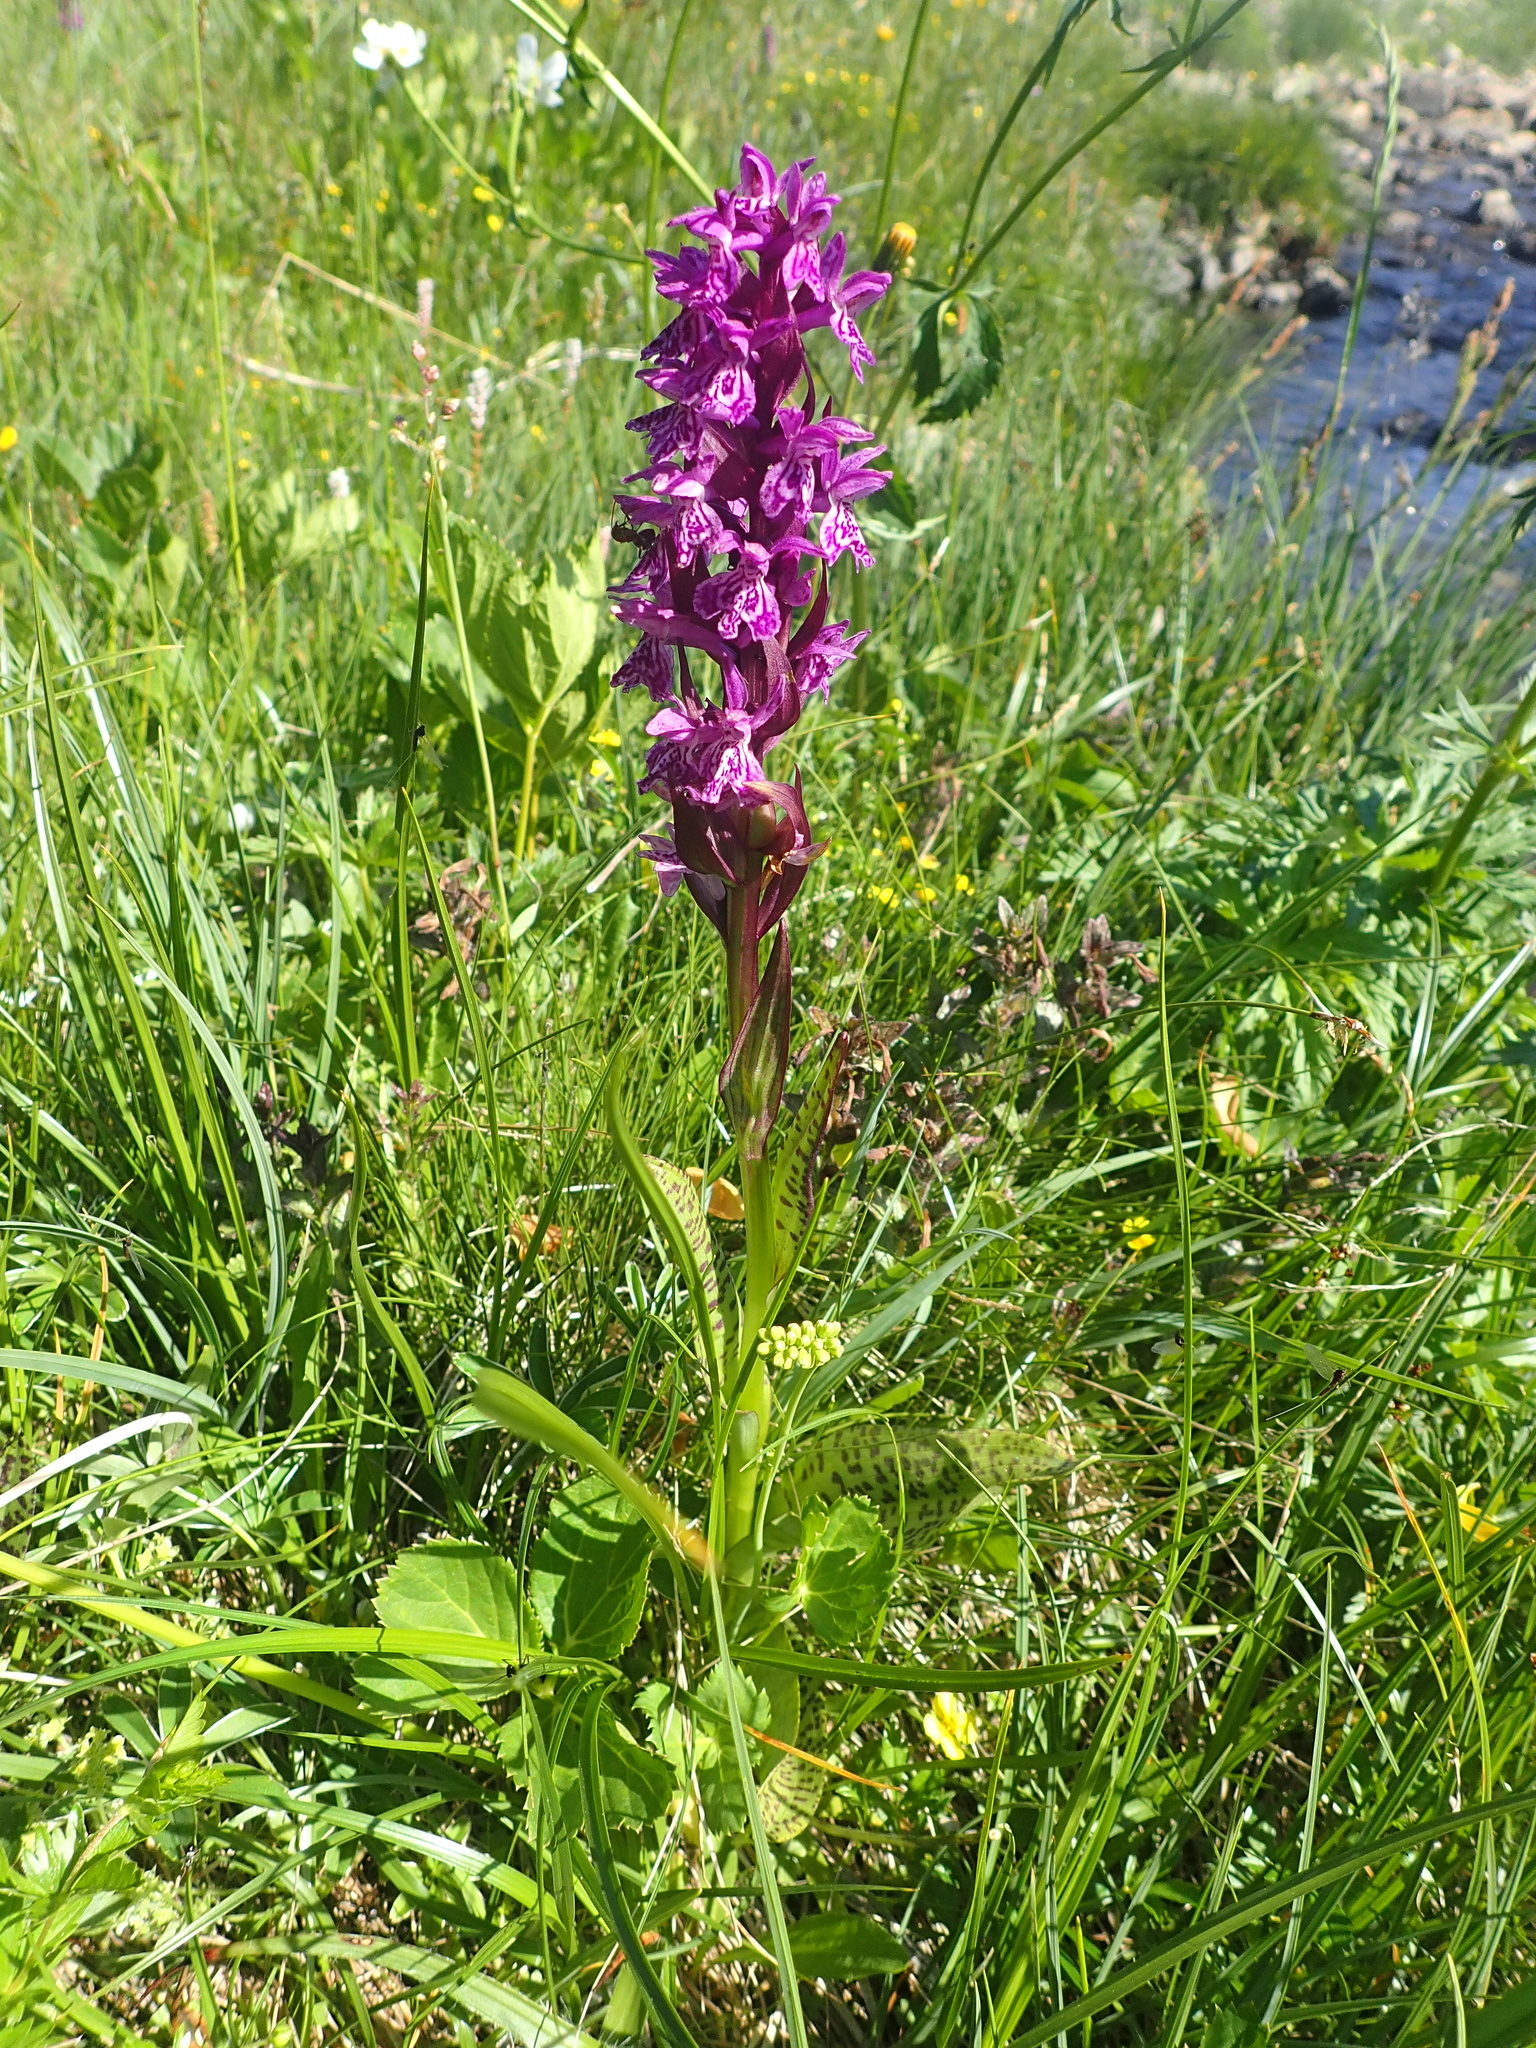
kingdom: Plantae
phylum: Tracheophyta
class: Liliopsida
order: Asparagales
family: Orchidaceae
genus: Dactylorhiza
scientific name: Dactylorhiza majalis
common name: Marsh orchid
